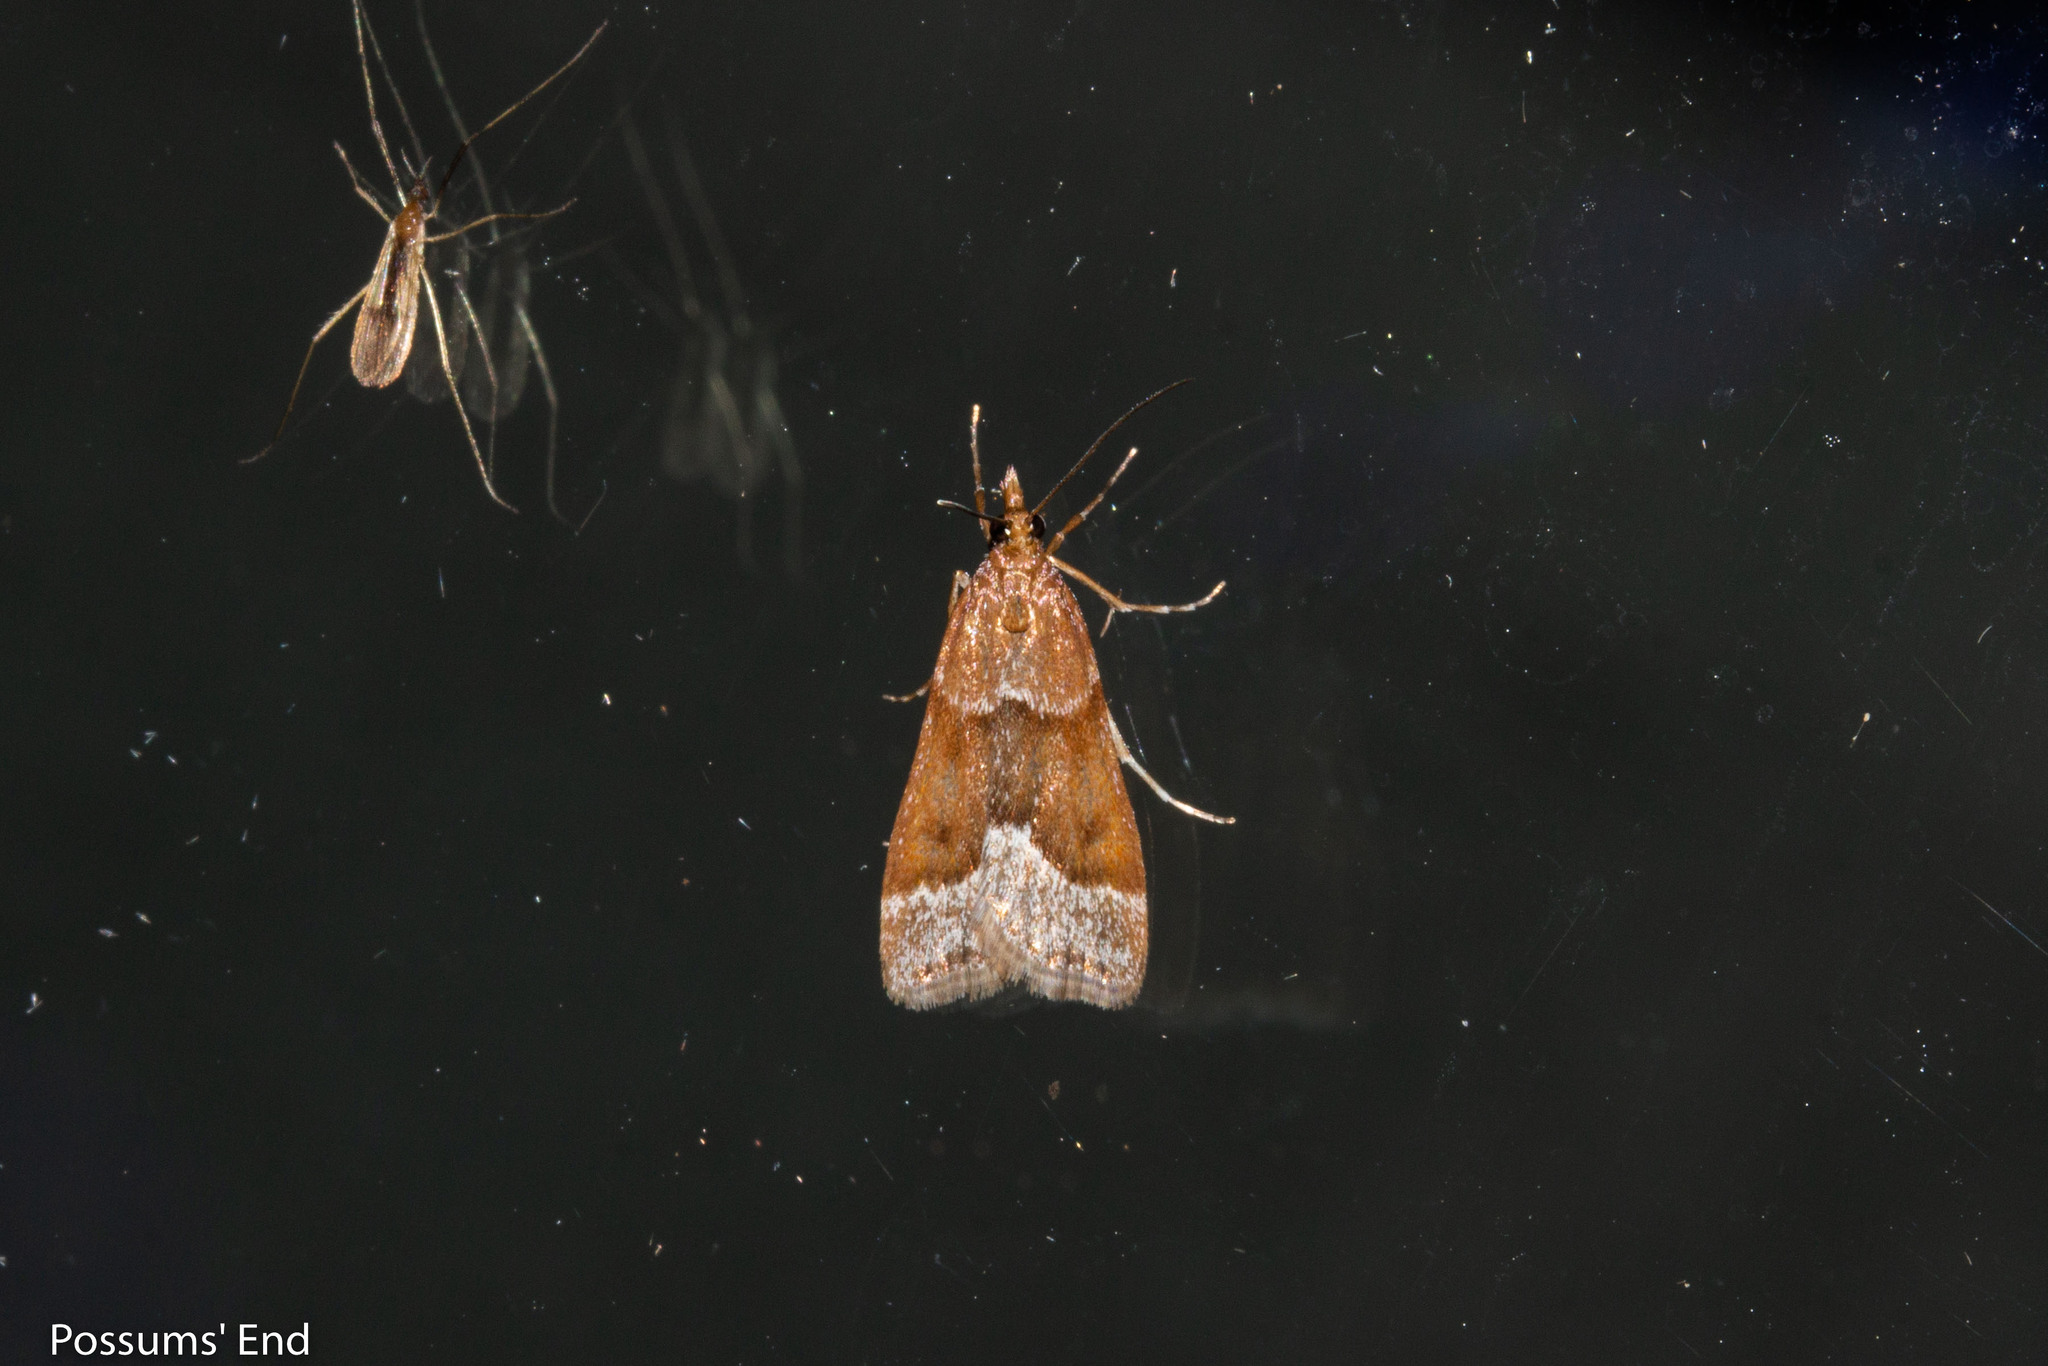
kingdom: Animalia
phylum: Arthropoda
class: Insecta
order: Lepidoptera
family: Crambidae
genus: Eudonia
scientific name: Eudonia feredayi
